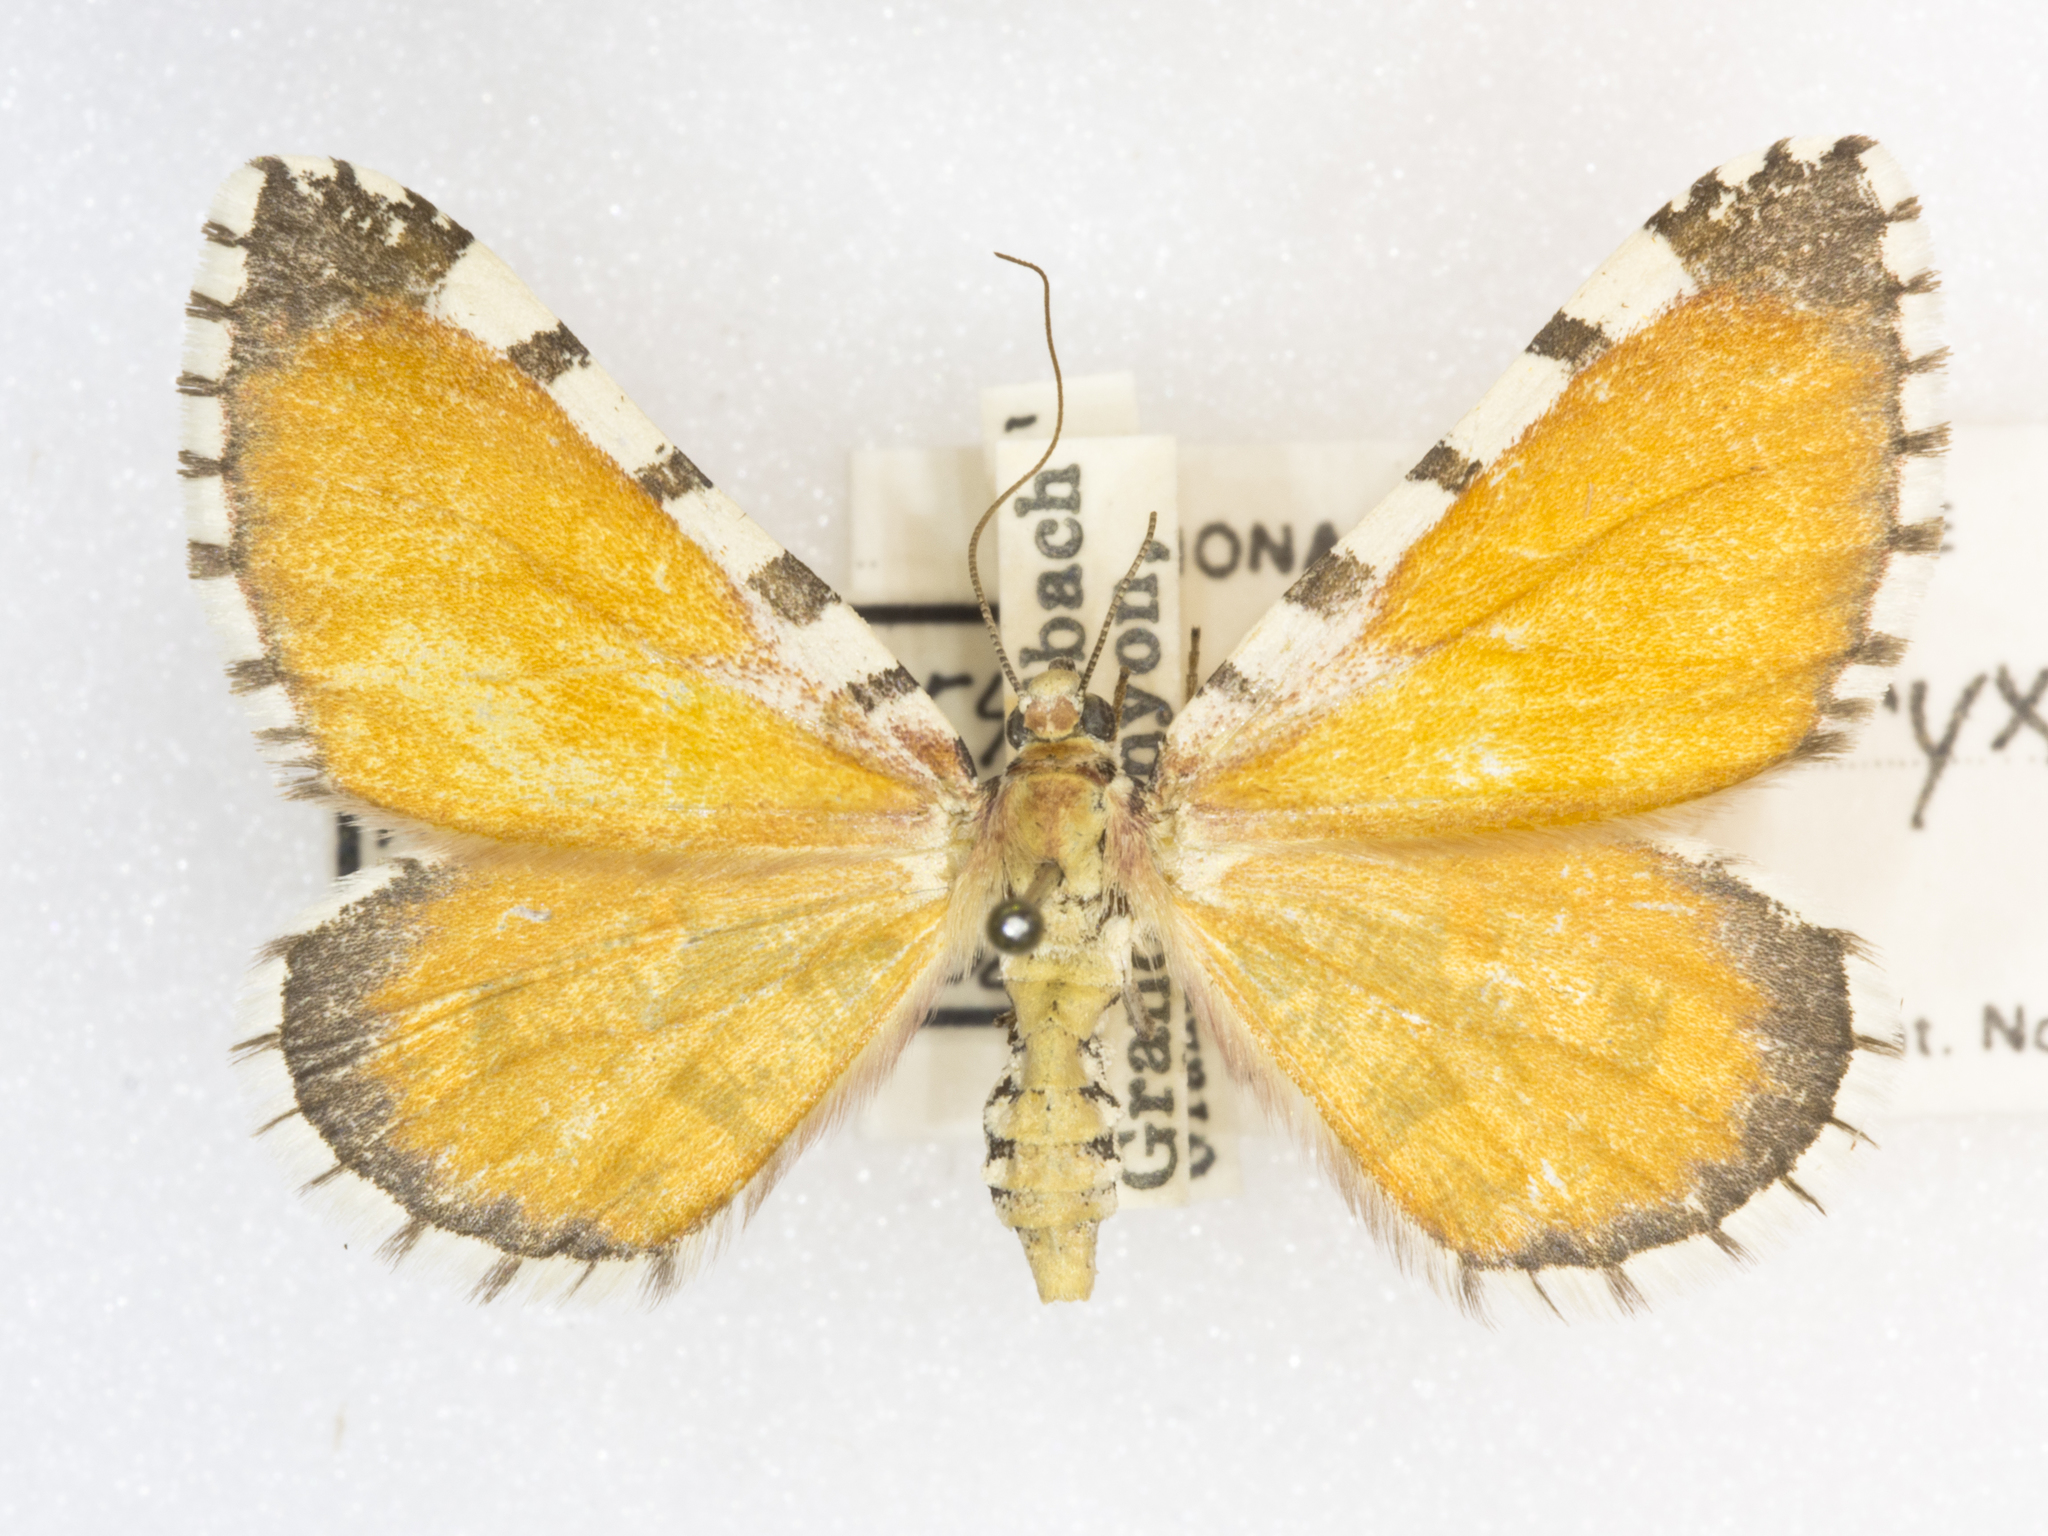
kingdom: Animalia
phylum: Arthropoda
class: Insecta
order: Lepidoptera
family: Geometridae
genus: Stamnodes
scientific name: Stamnodes tessellata
